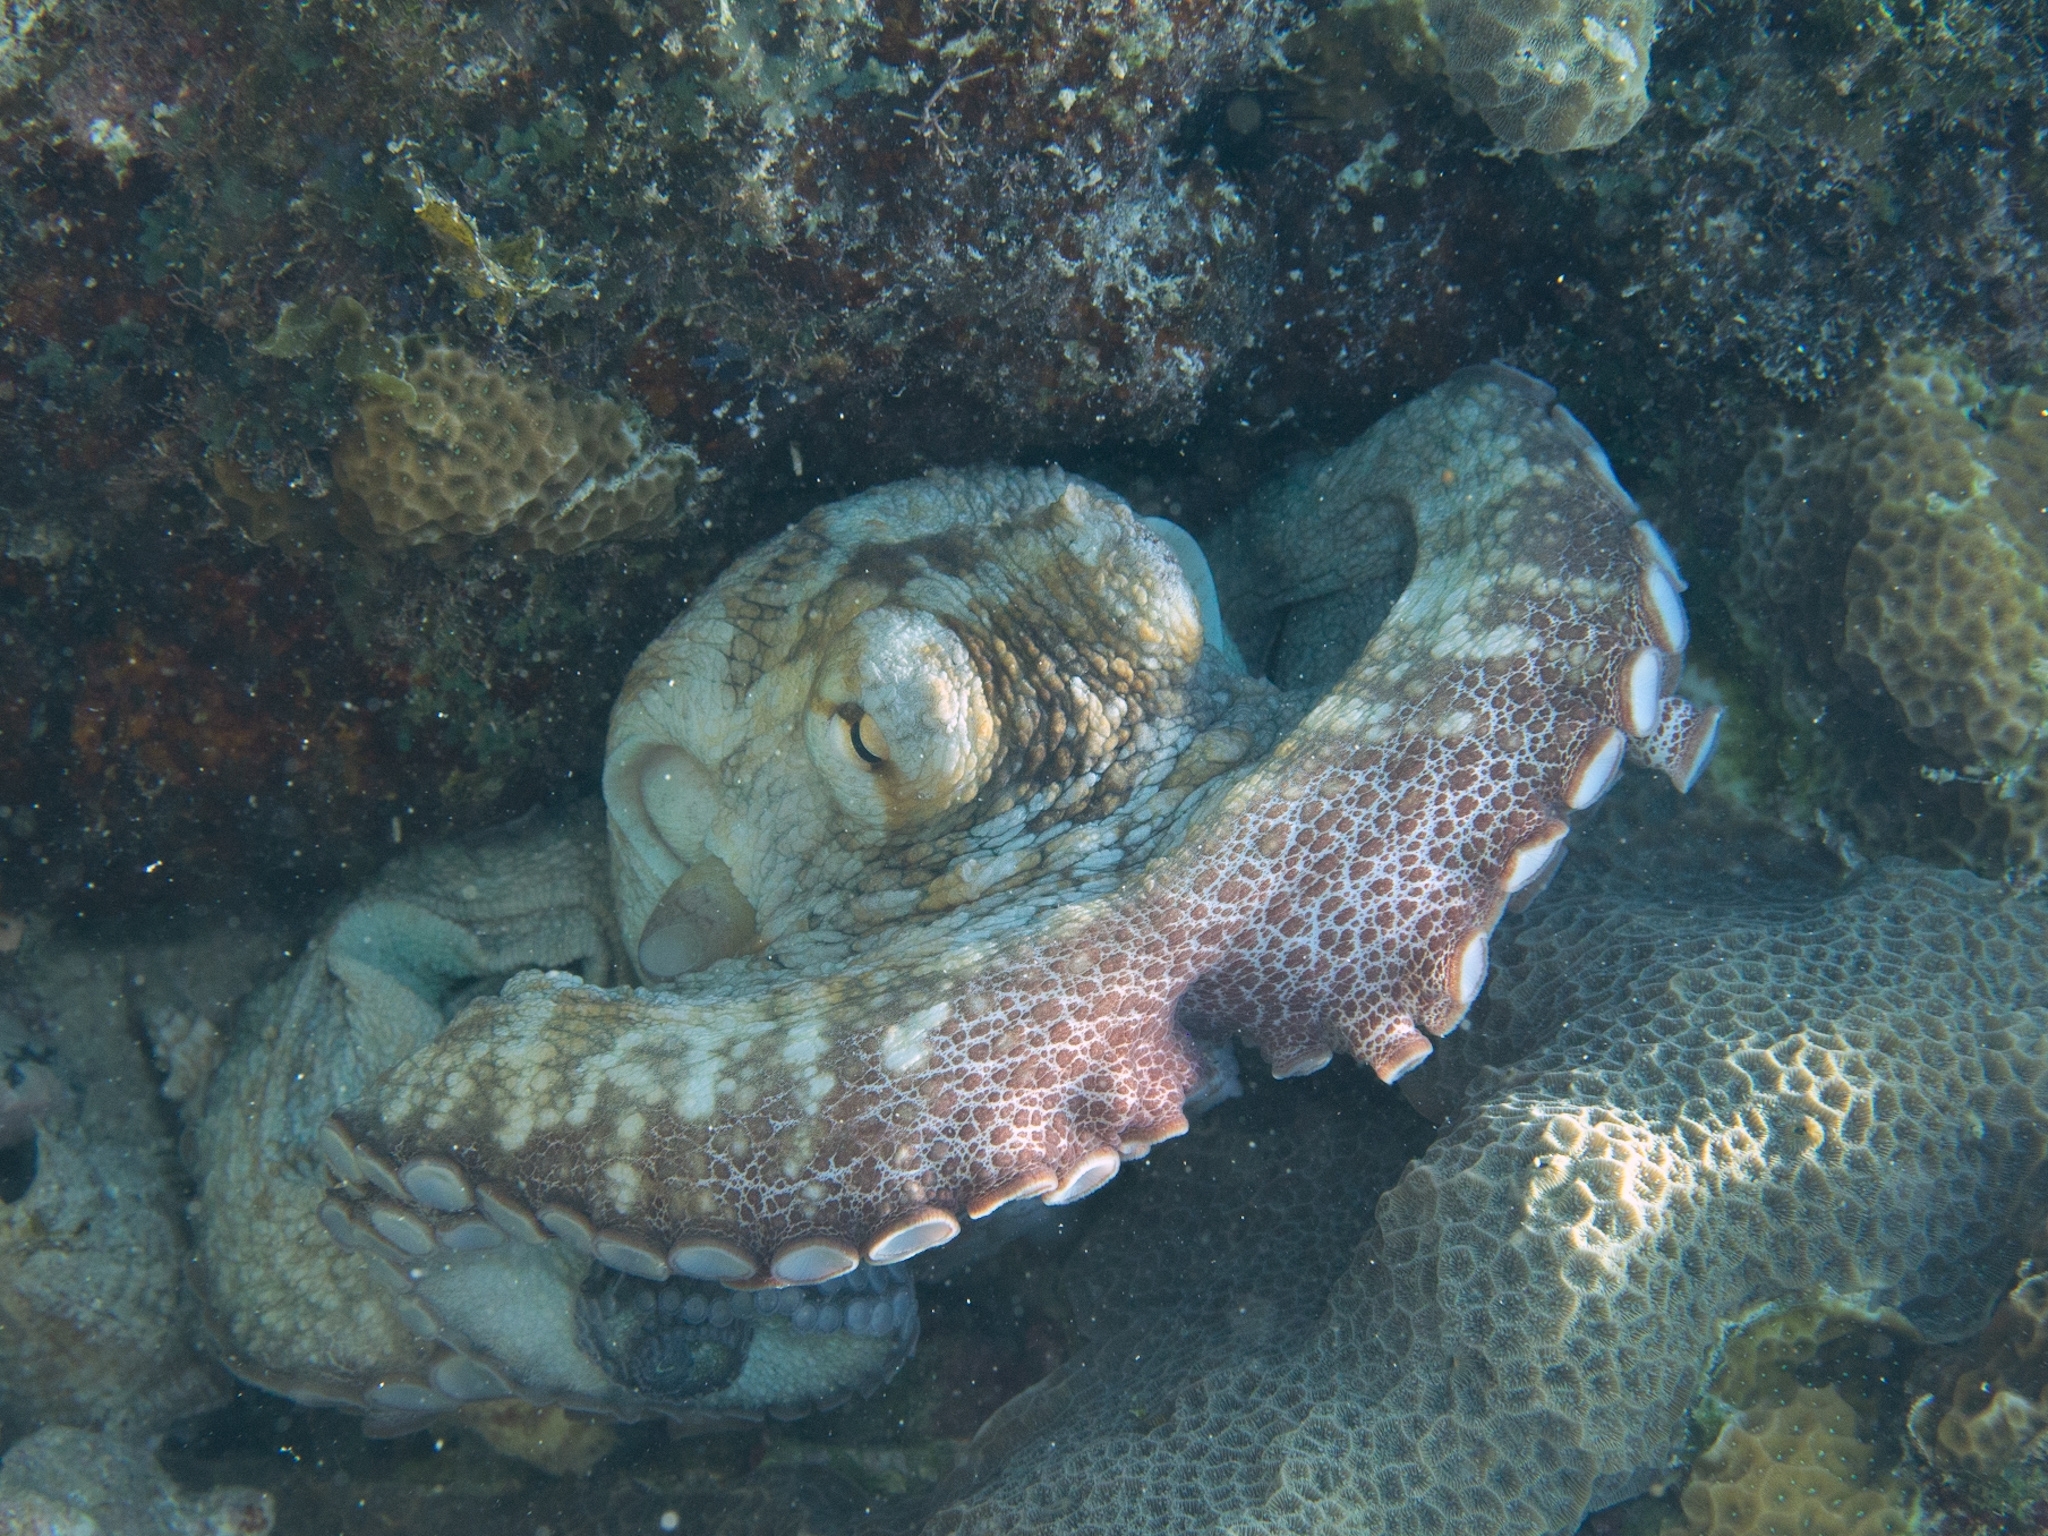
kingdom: Animalia
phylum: Mollusca
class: Cephalopoda
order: Octopoda
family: Octopodidae
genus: Octopus
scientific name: Octopus insularis
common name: Brazil reef octopus
